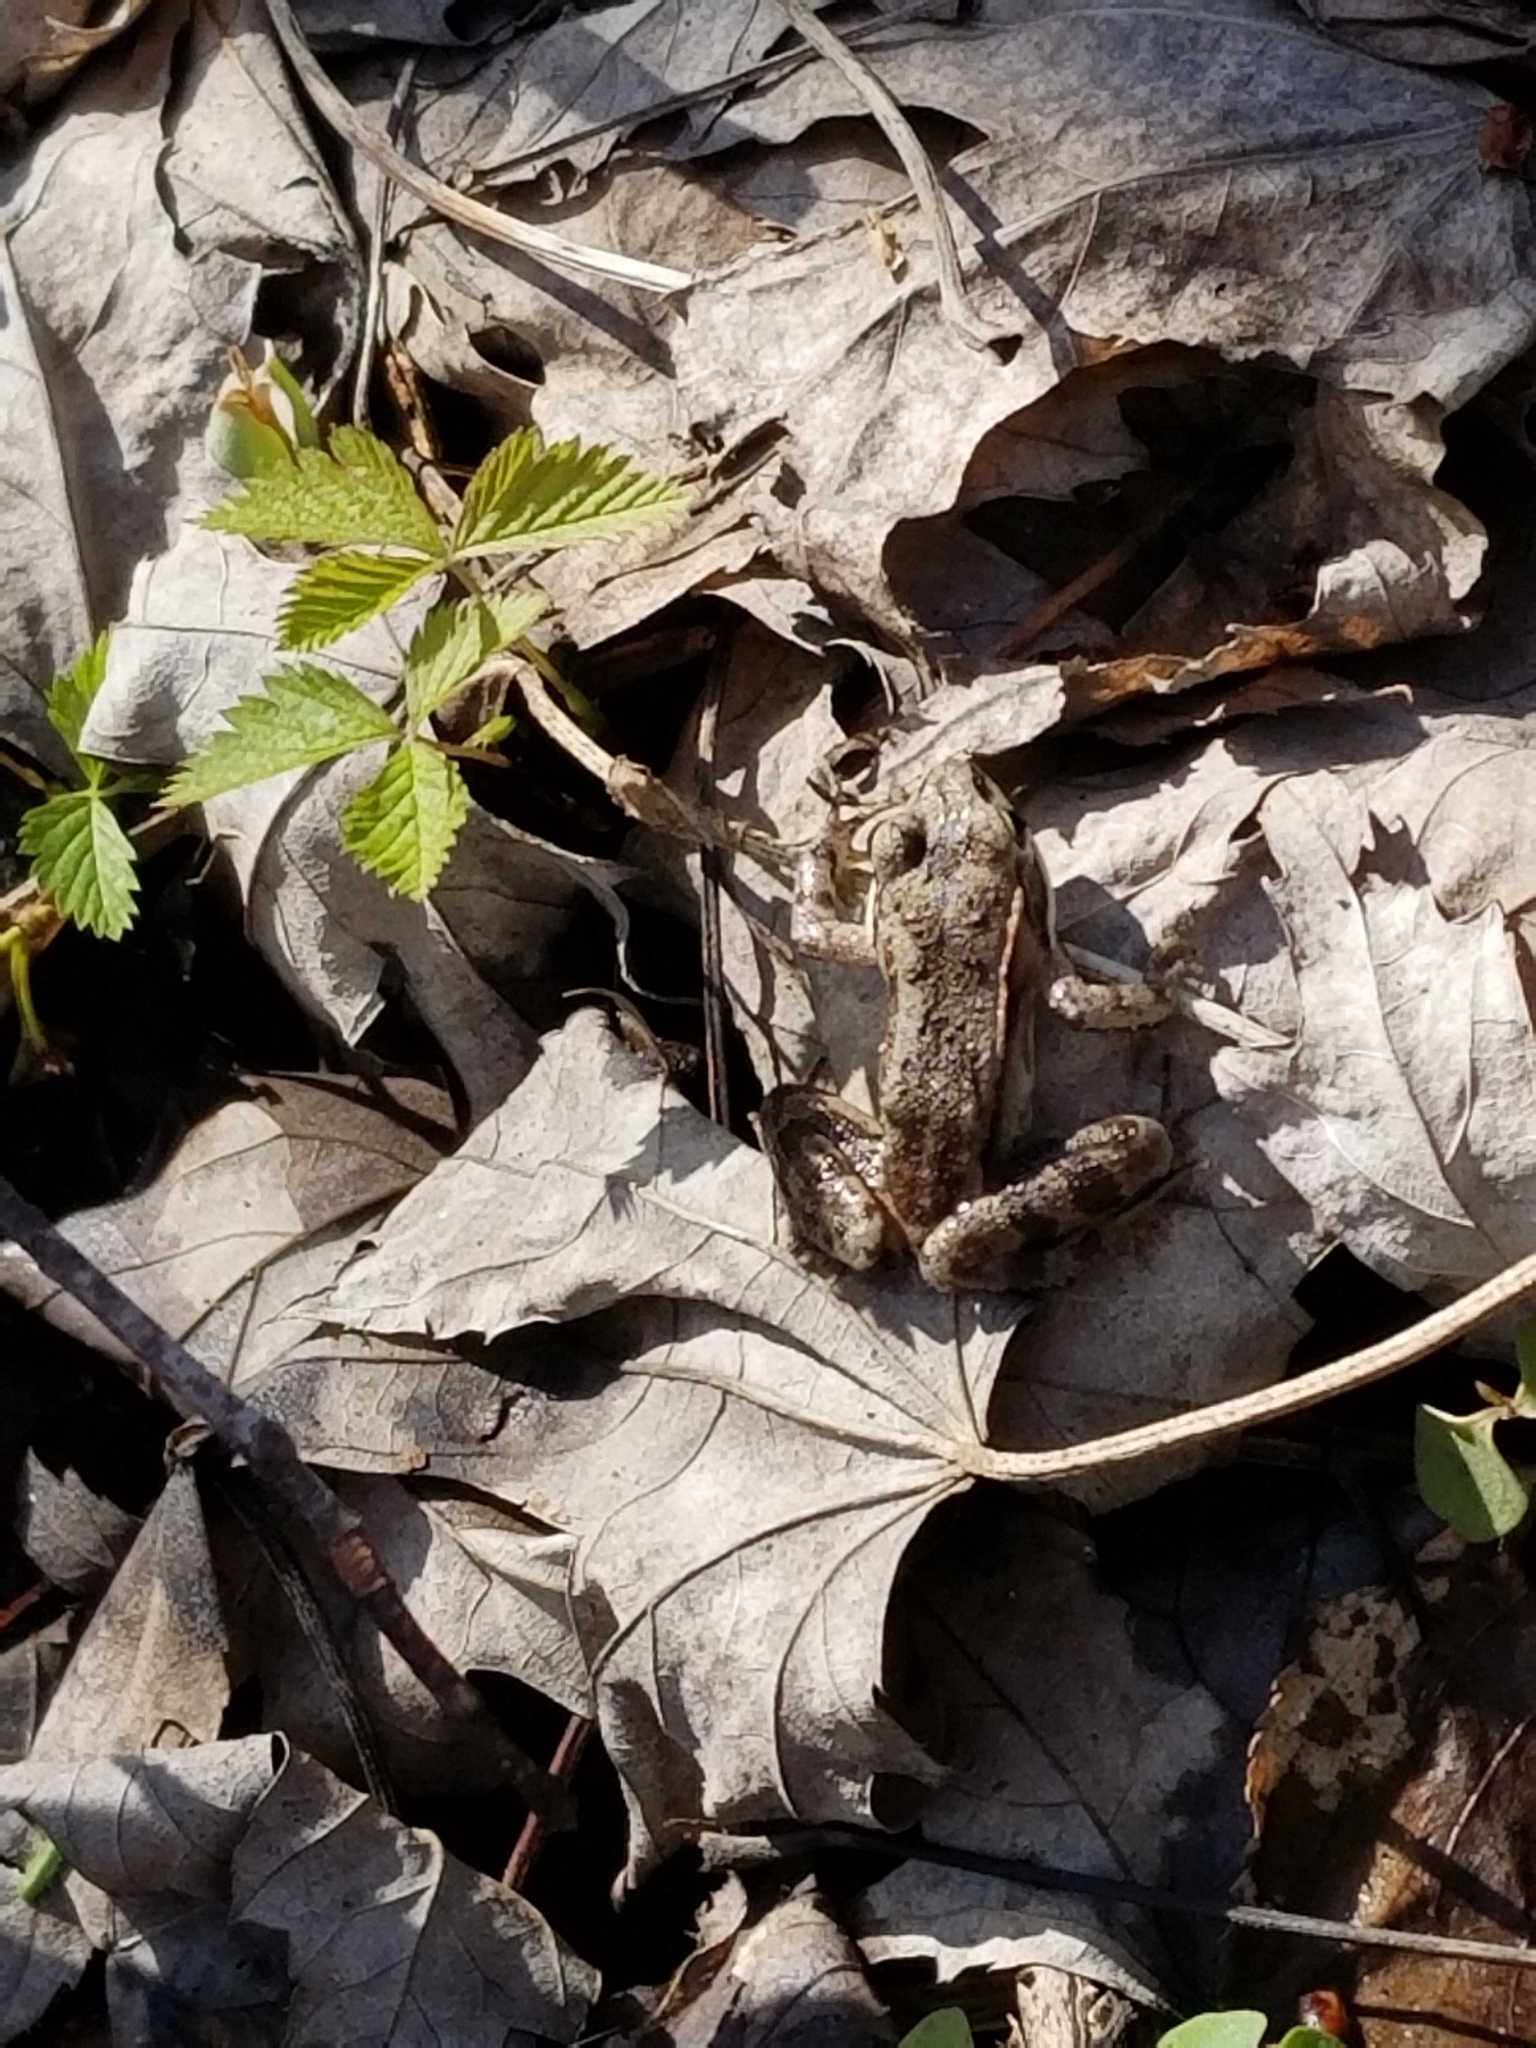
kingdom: Animalia
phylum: Chordata
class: Amphibia
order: Anura
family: Ranidae
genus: Lithobates
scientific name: Lithobates sylvaticus
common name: Wood frog
